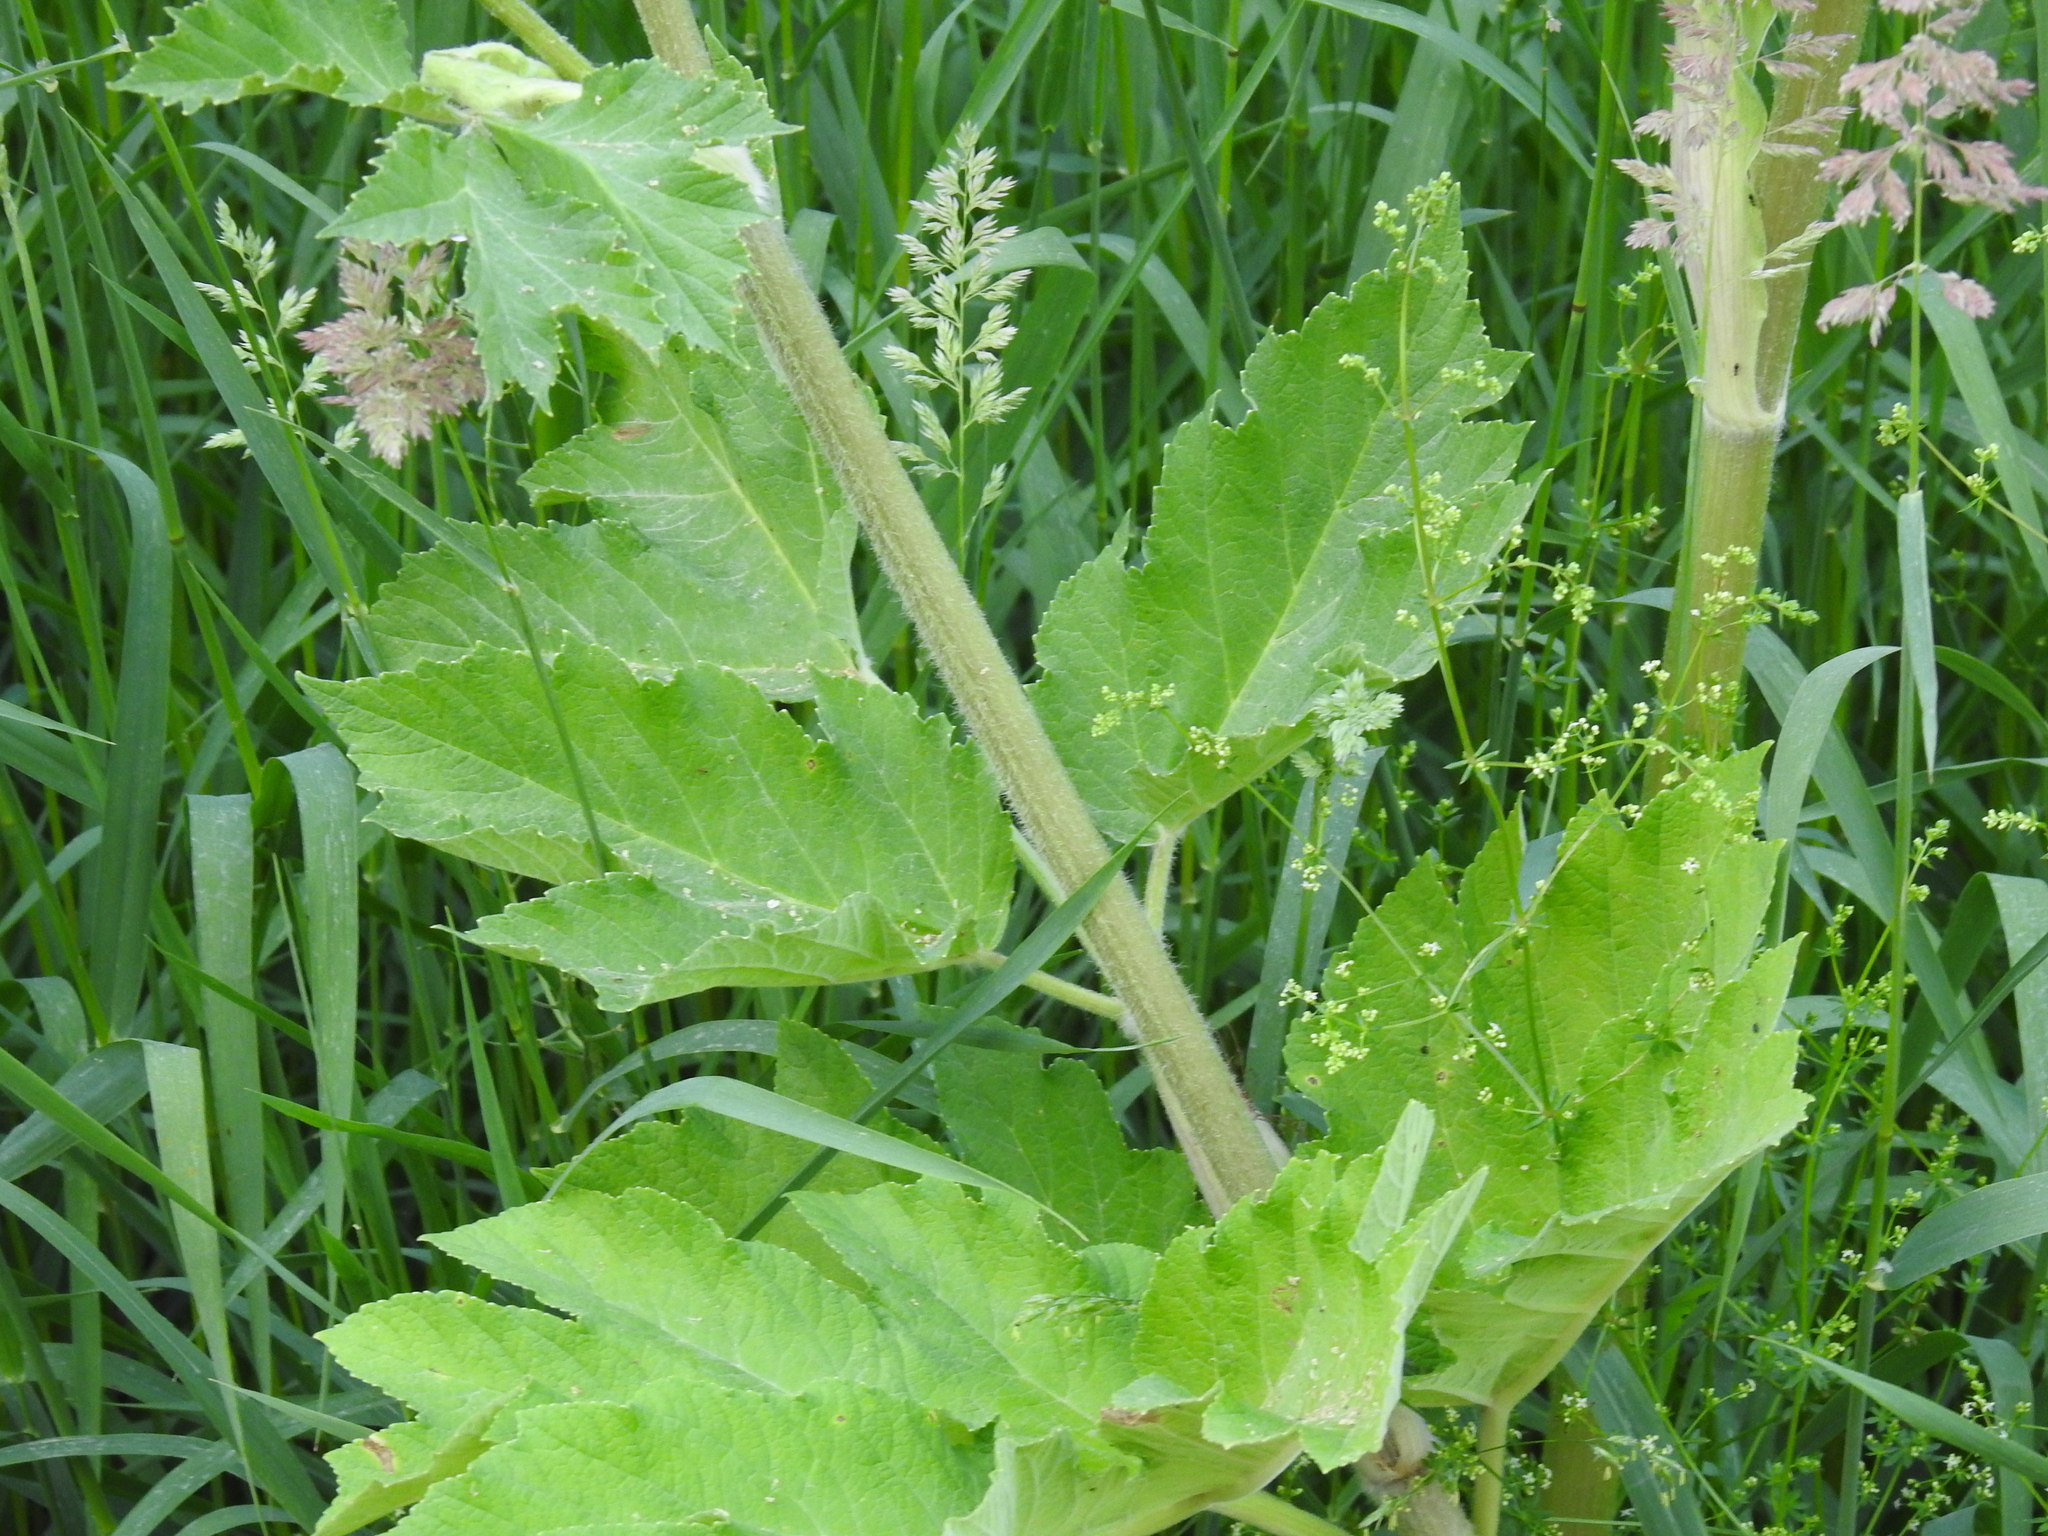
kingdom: Plantae
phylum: Tracheophyta
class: Magnoliopsida
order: Apiales
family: Apiaceae
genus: Heracleum
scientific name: Heracleum maximum
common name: American cow parsnip
